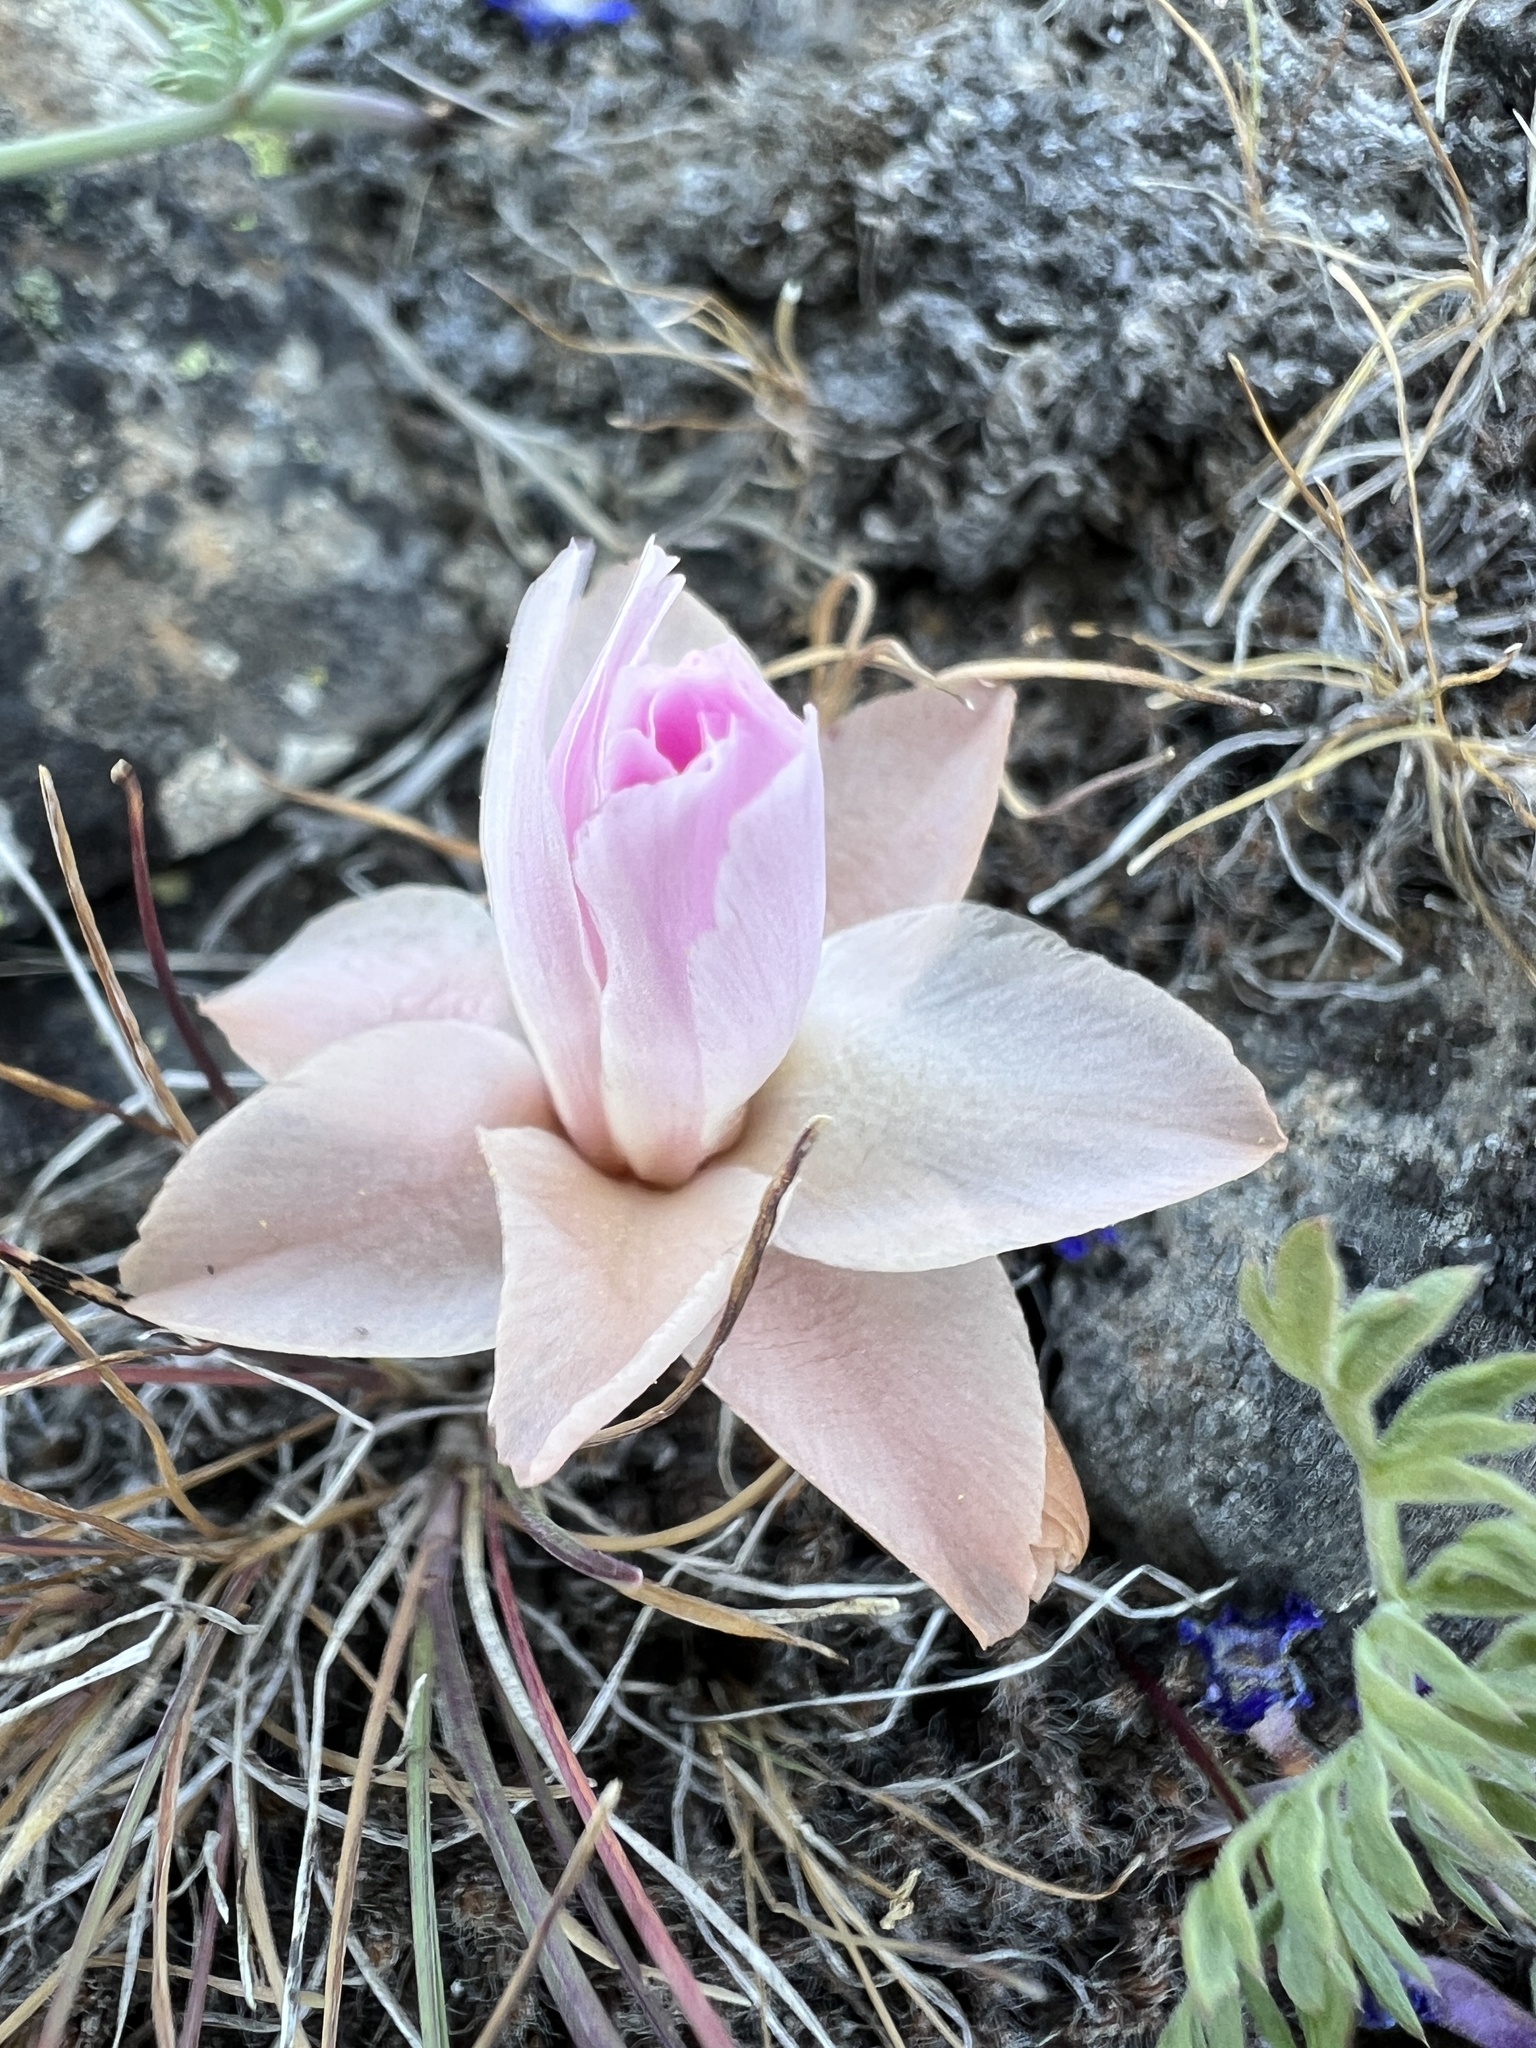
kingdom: Plantae
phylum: Tracheophyta
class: Magnoliopsida
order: Caryophyllales
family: Montiaceae
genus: Lewisia
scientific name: Lewisia rediviva
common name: Bitter-root
